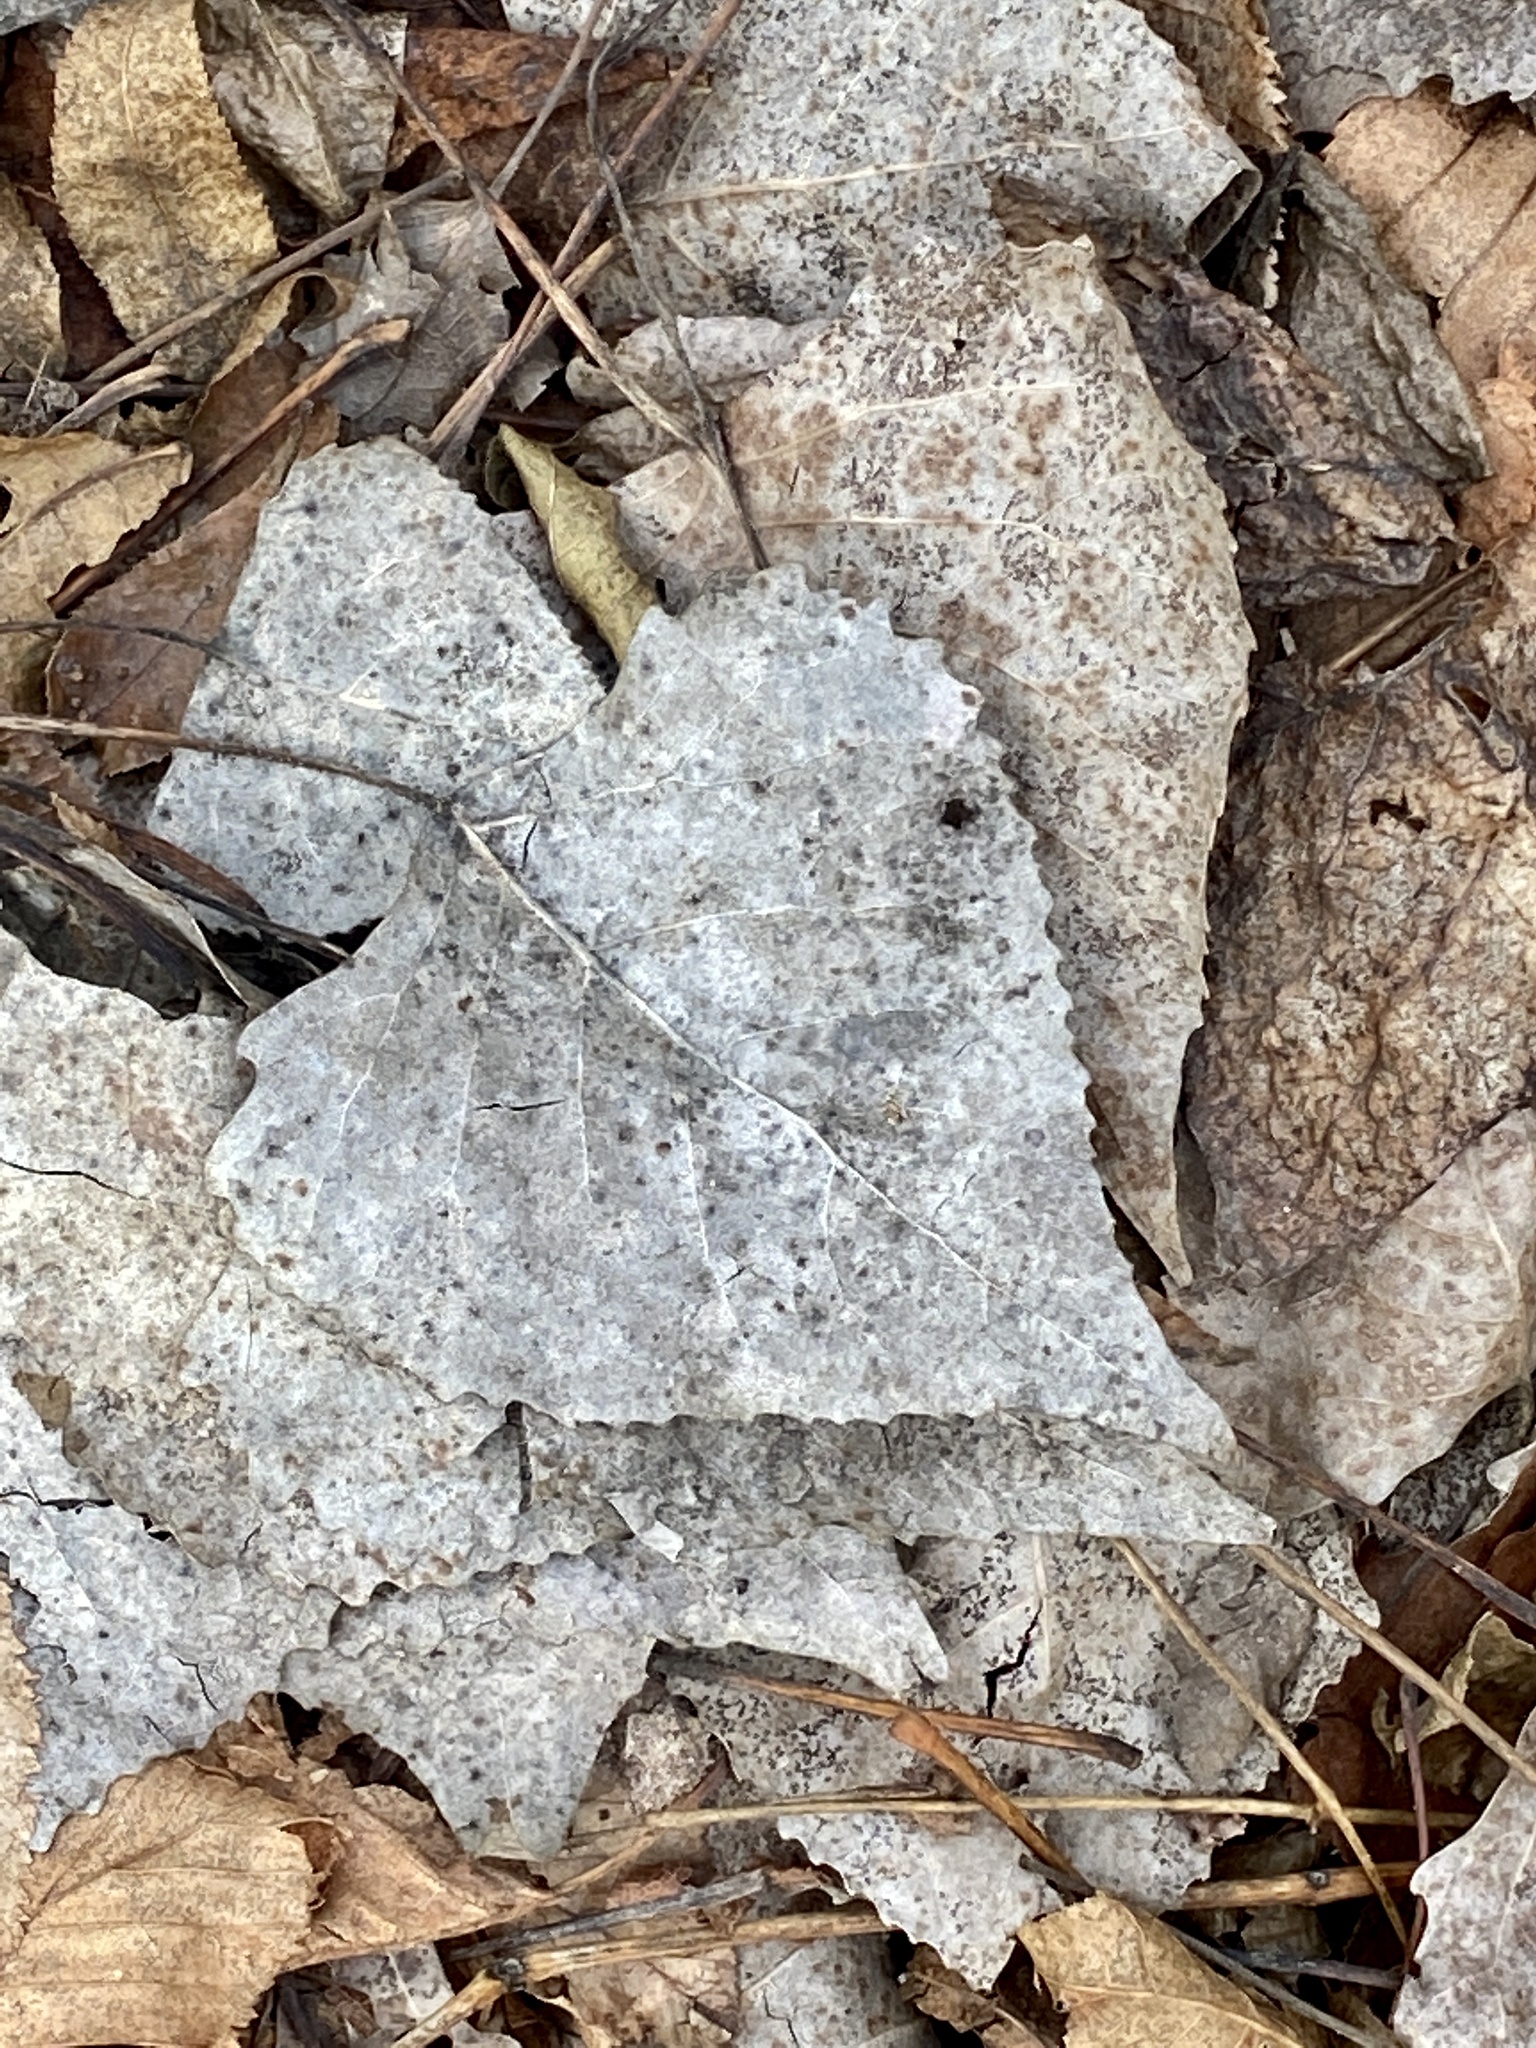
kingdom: Plantae
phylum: Tracheophyta
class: Magnoliopsida
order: Malpighiales
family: Salicaceae
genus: Populus
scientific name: Populus deltoides
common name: Eastern cottonwood
